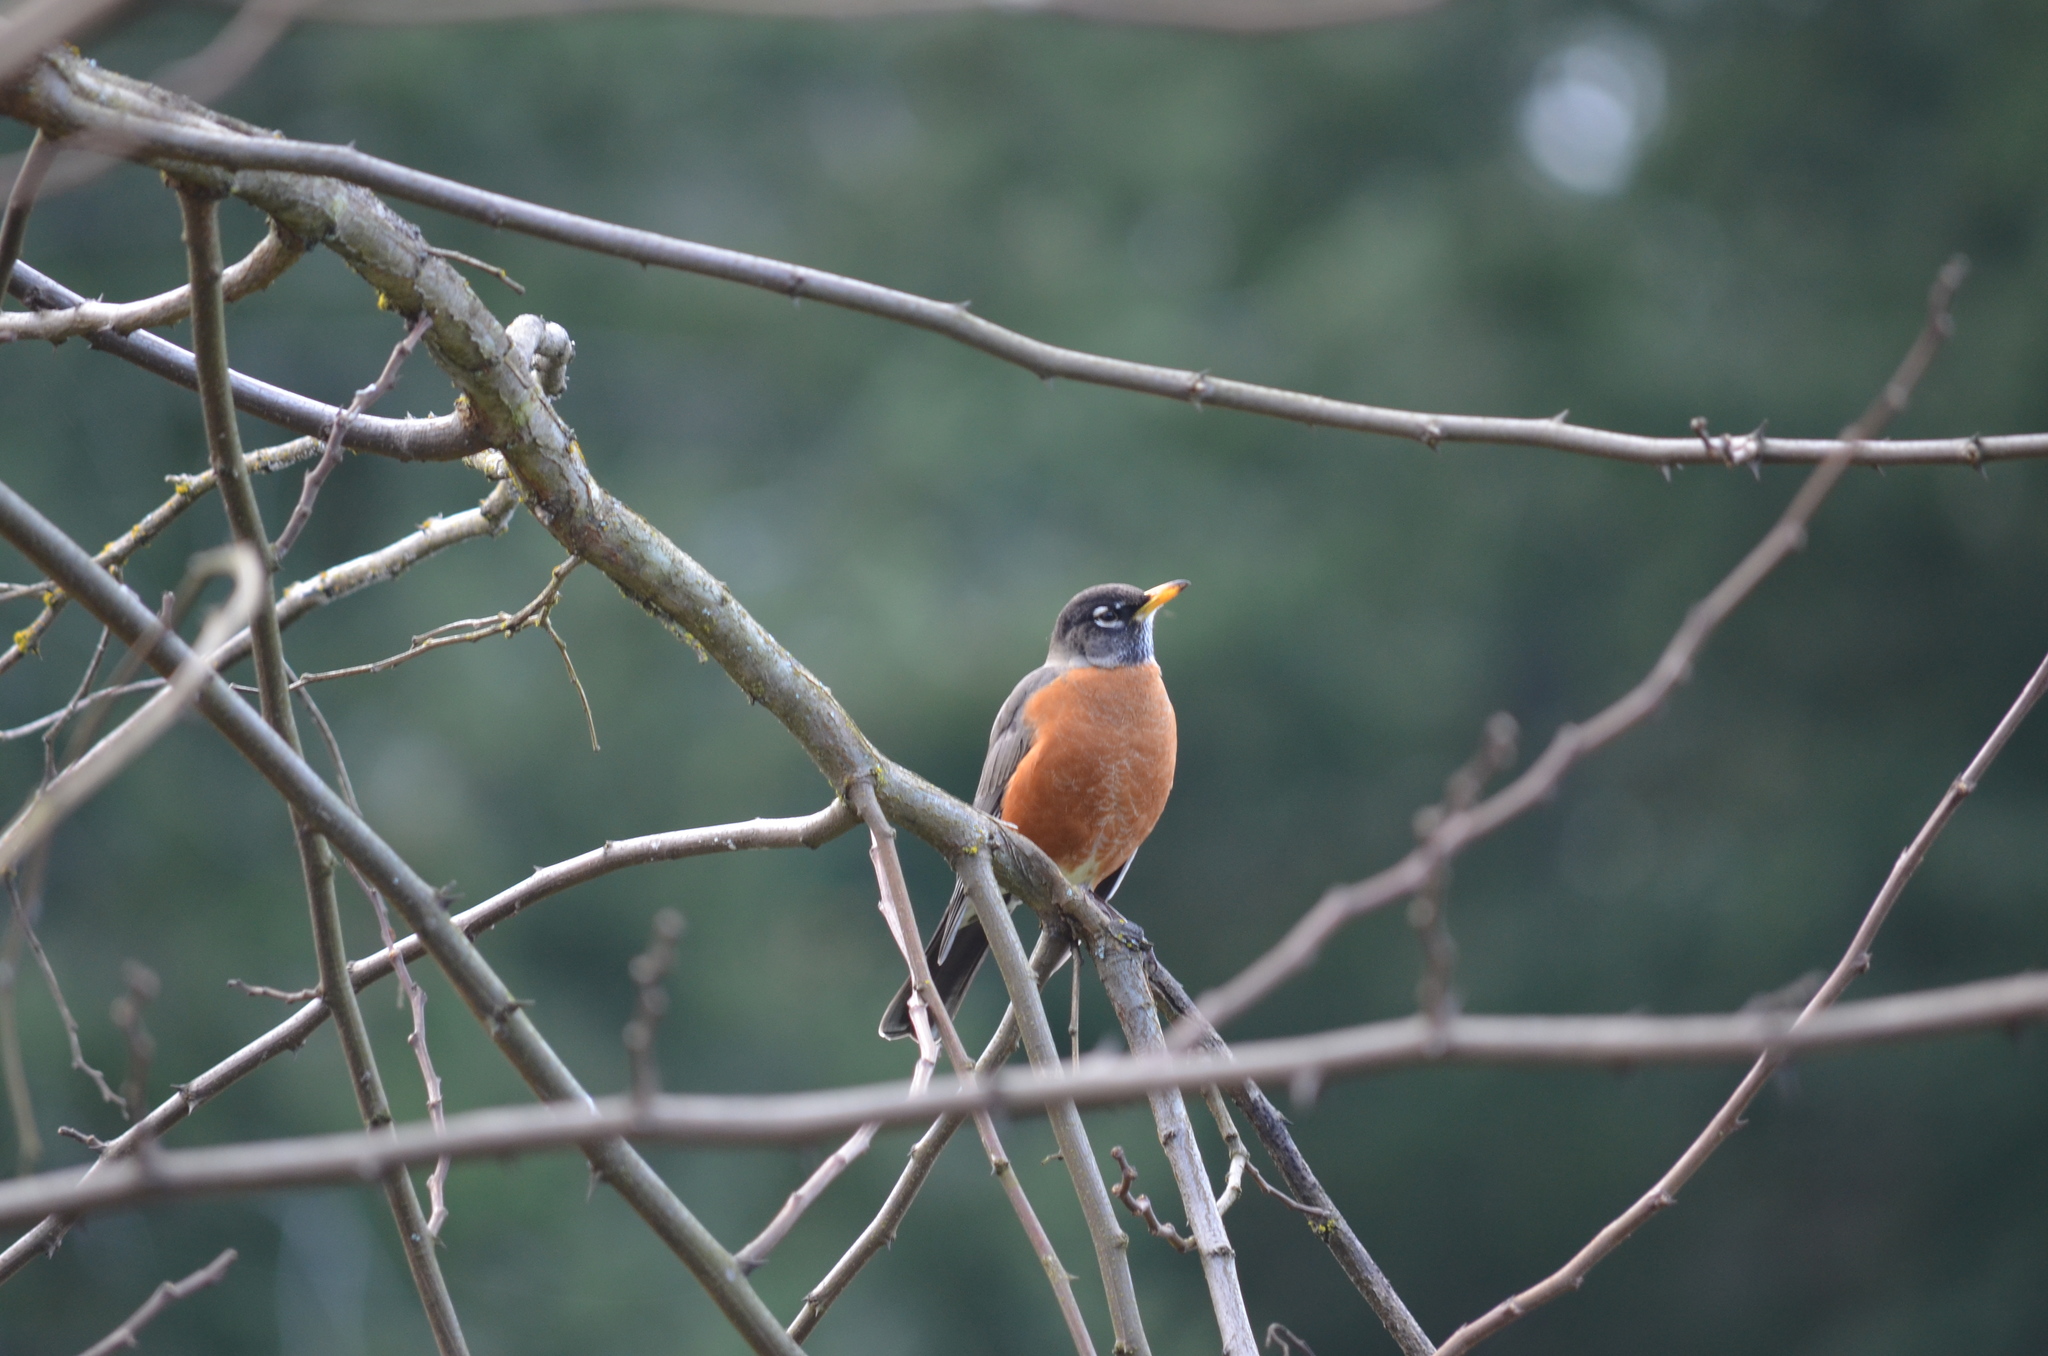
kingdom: Animalia
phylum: Chordata
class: Aves
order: Passeriformes
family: Turdidae
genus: Turdus
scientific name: Turdus migratorius
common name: American robin
